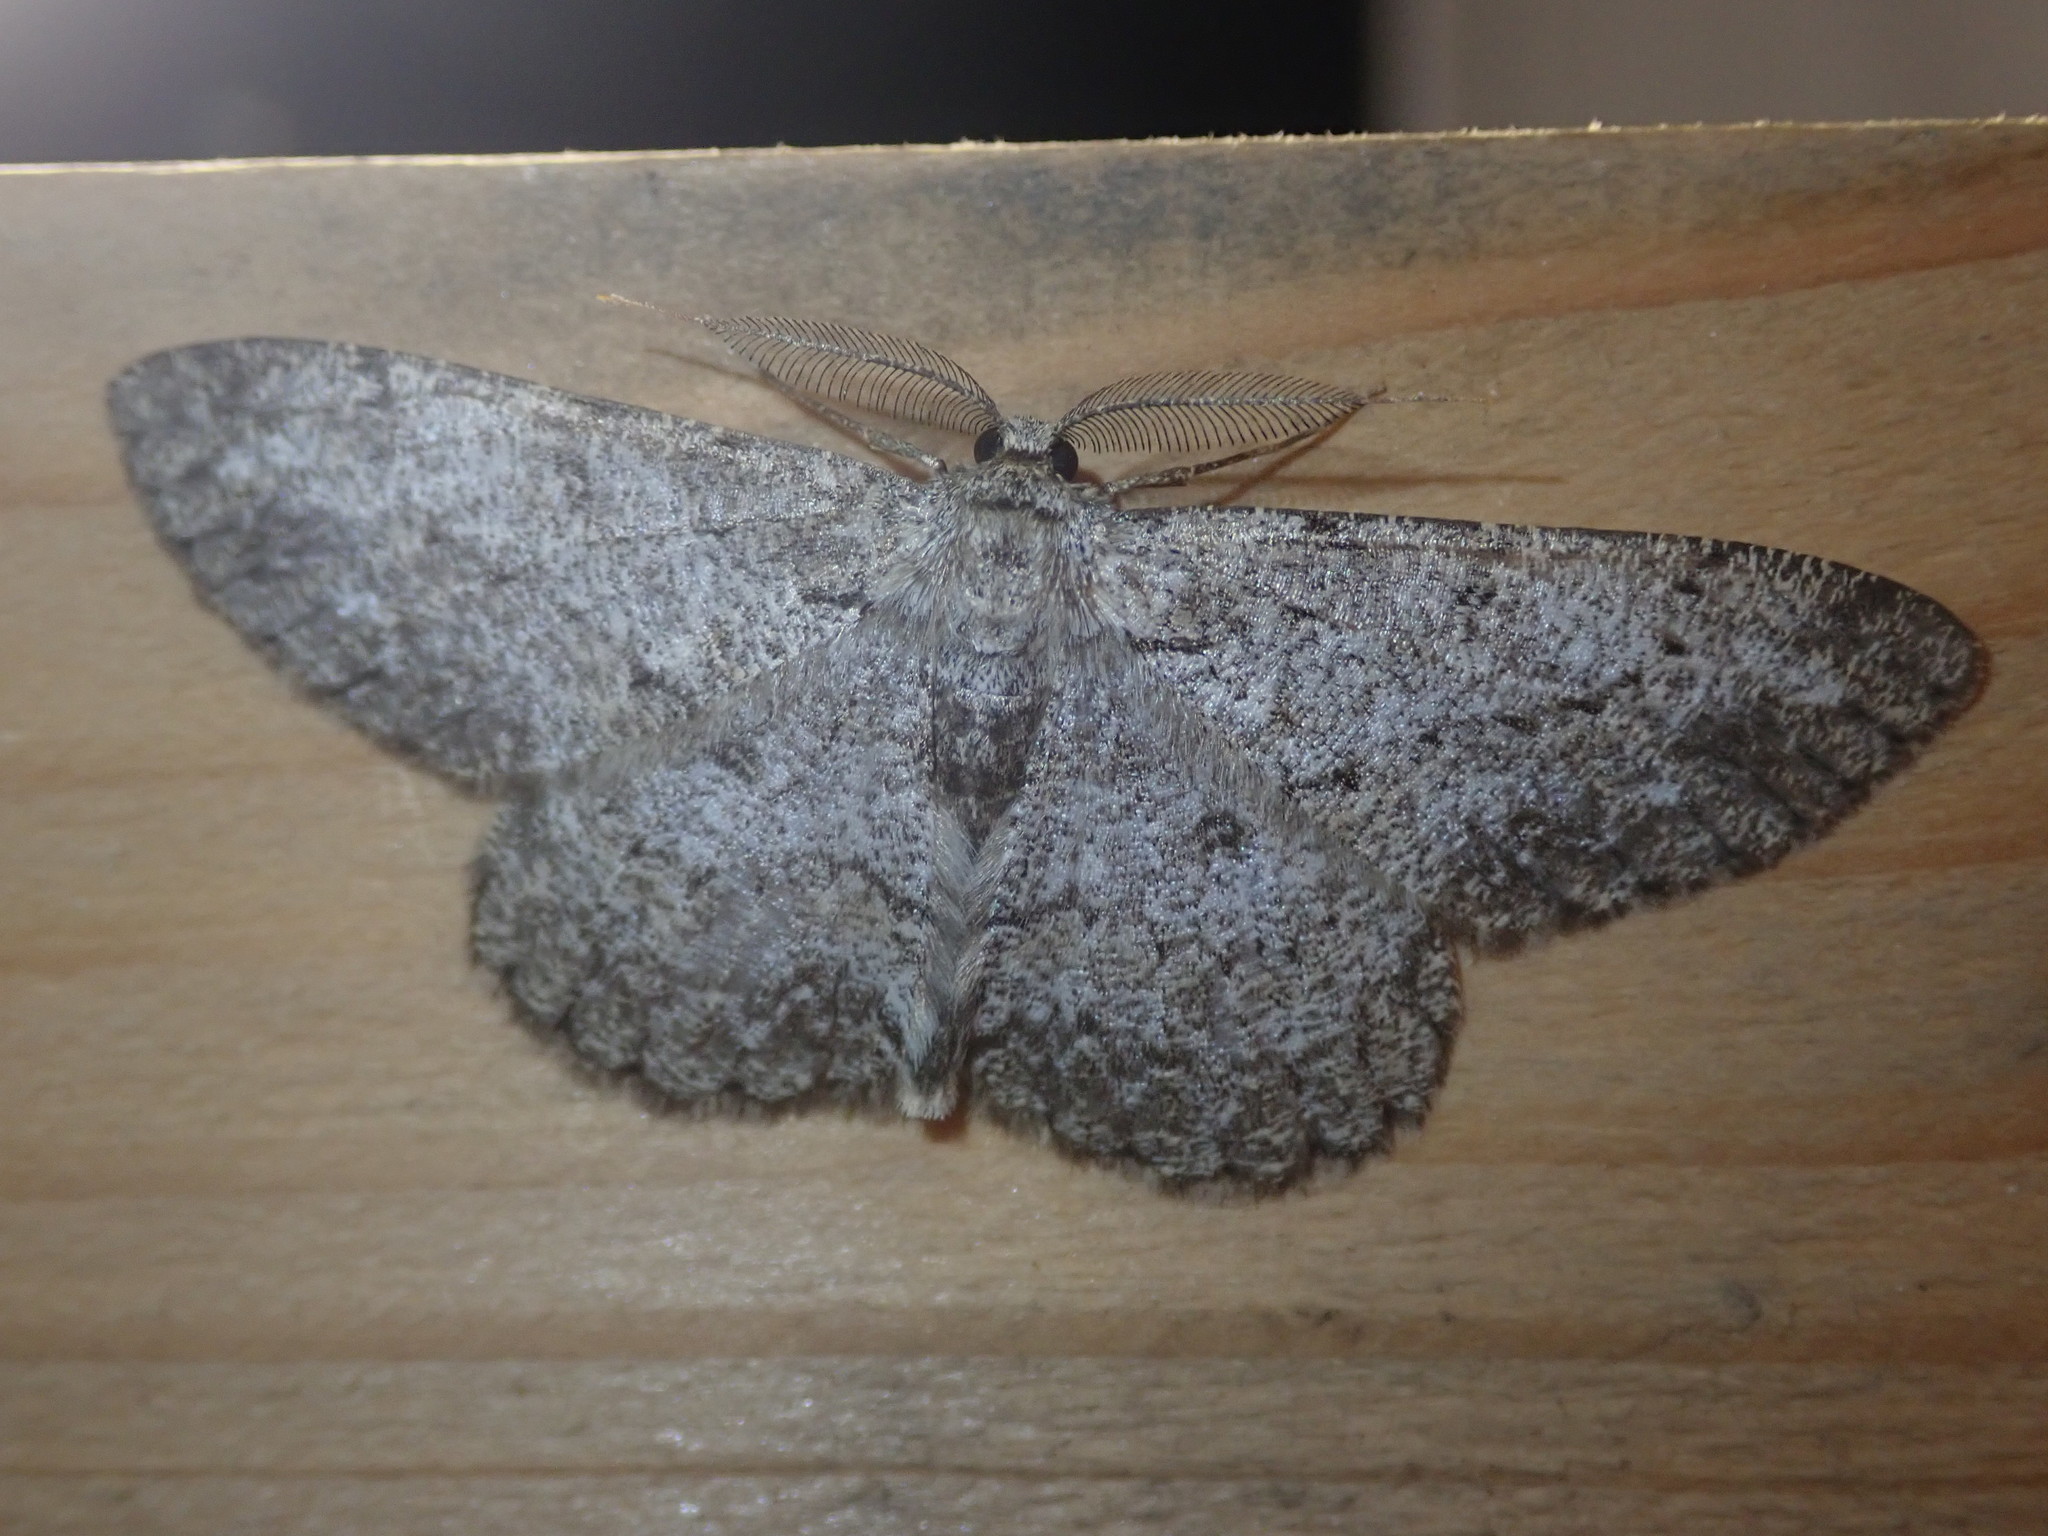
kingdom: Animalia
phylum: Arthropoda
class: Insecta
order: Lepidoptera
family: Geometridae
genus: Hypomecis
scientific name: Hypomecis punctinalis
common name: Pale oak beauty
